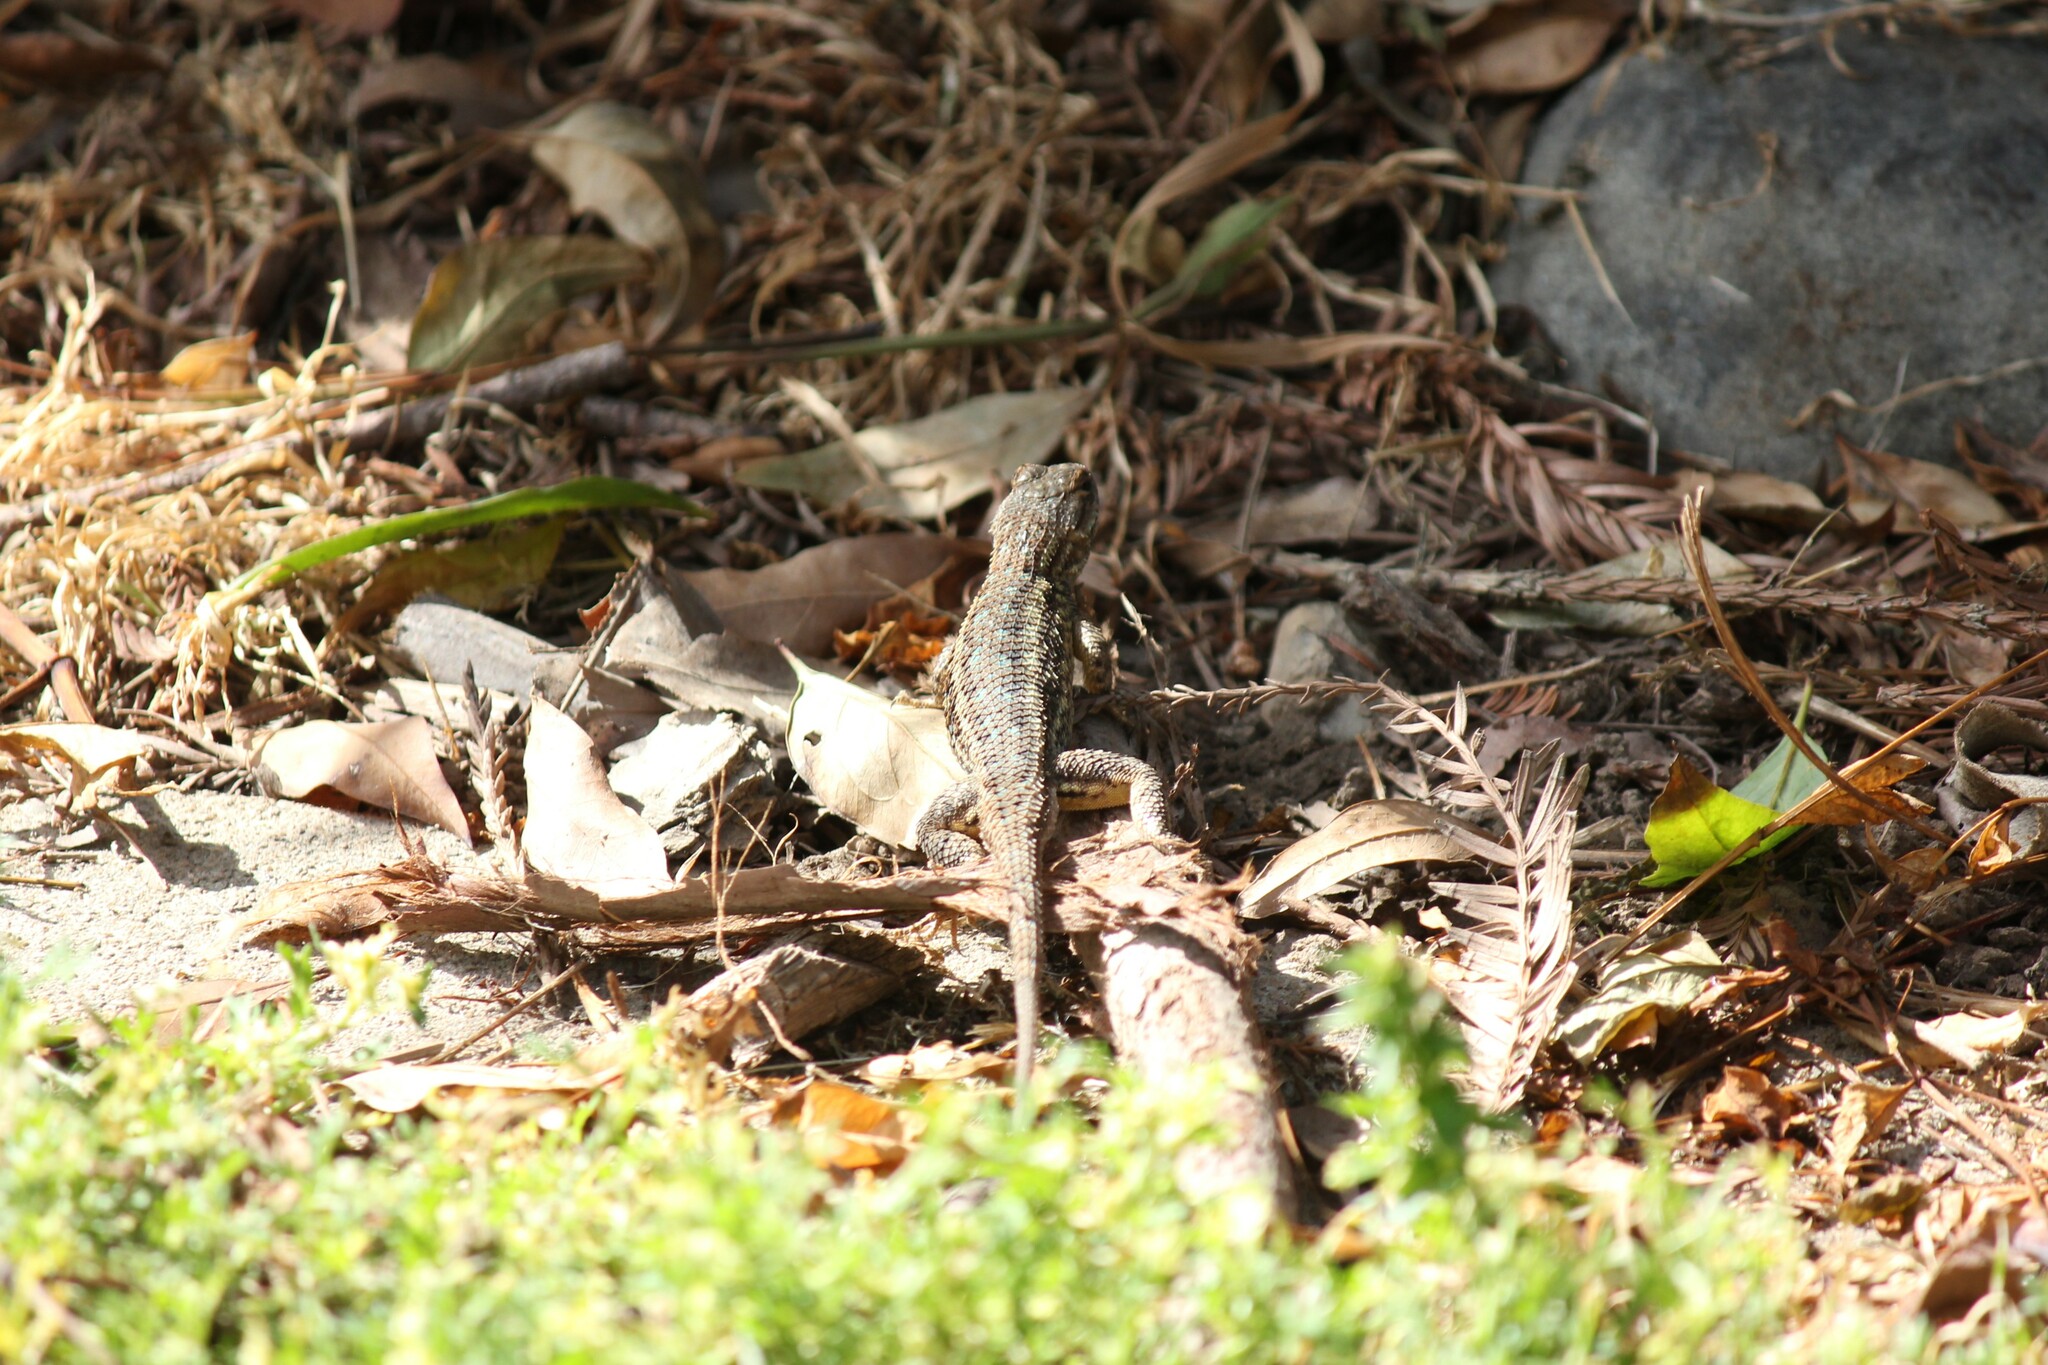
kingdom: Animalia
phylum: Chordata
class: Squamata
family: Phrynosomatidae
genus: Sceloporus
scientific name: Sceloporus occidentalis
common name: Western fence lizard
